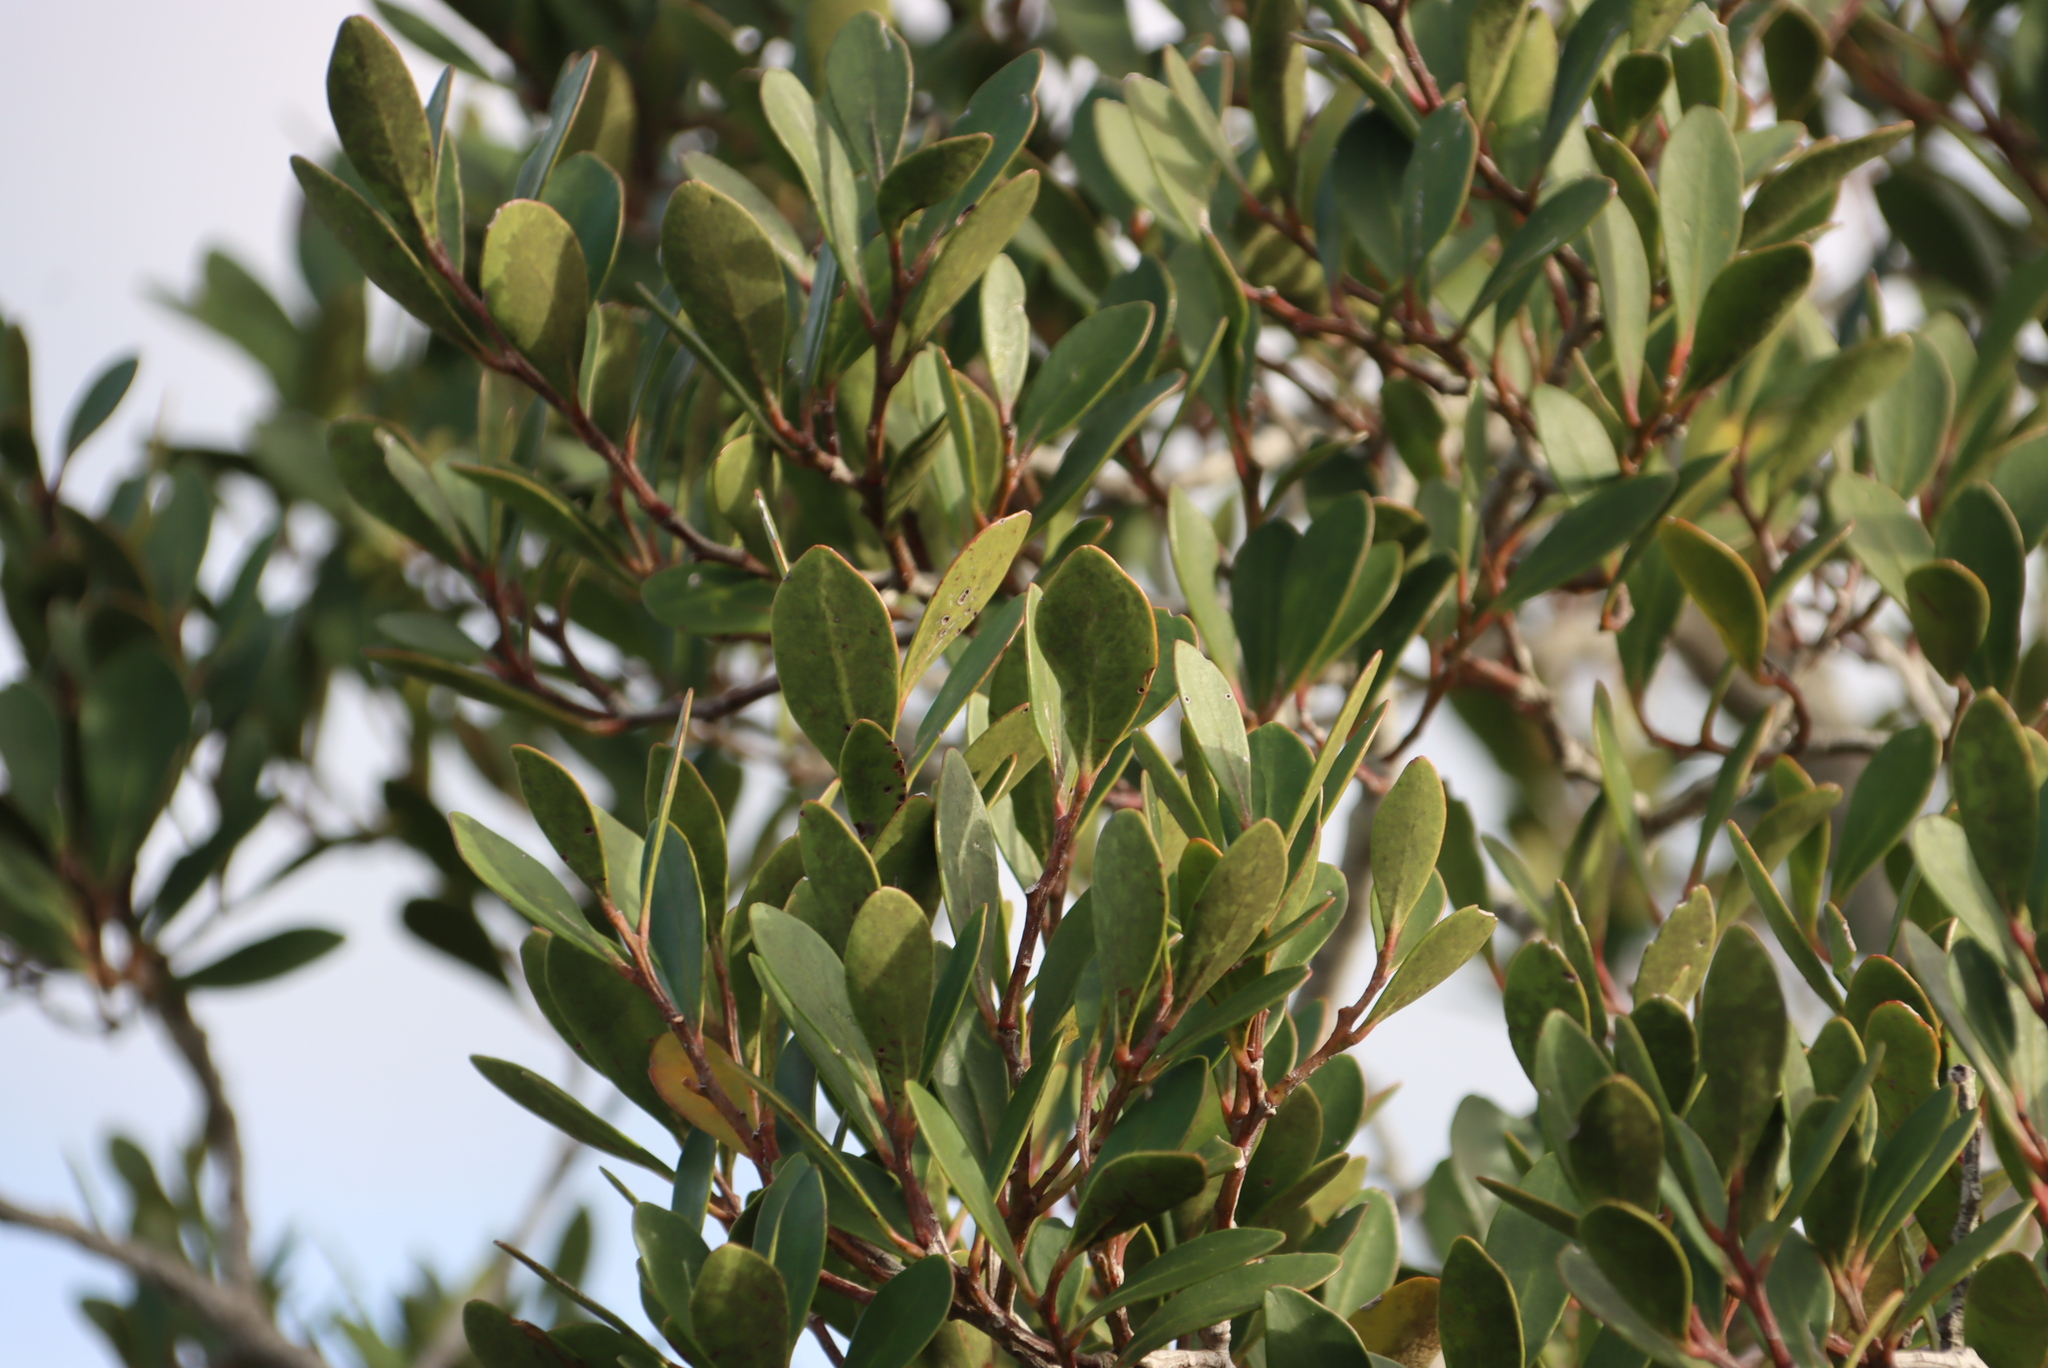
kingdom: Plantae
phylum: Tracheophyta
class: Magnoliopsida
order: Celastrales
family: Celastraceae
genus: Pterocelastrus
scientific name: Pterocelastrus tricuspidatus
